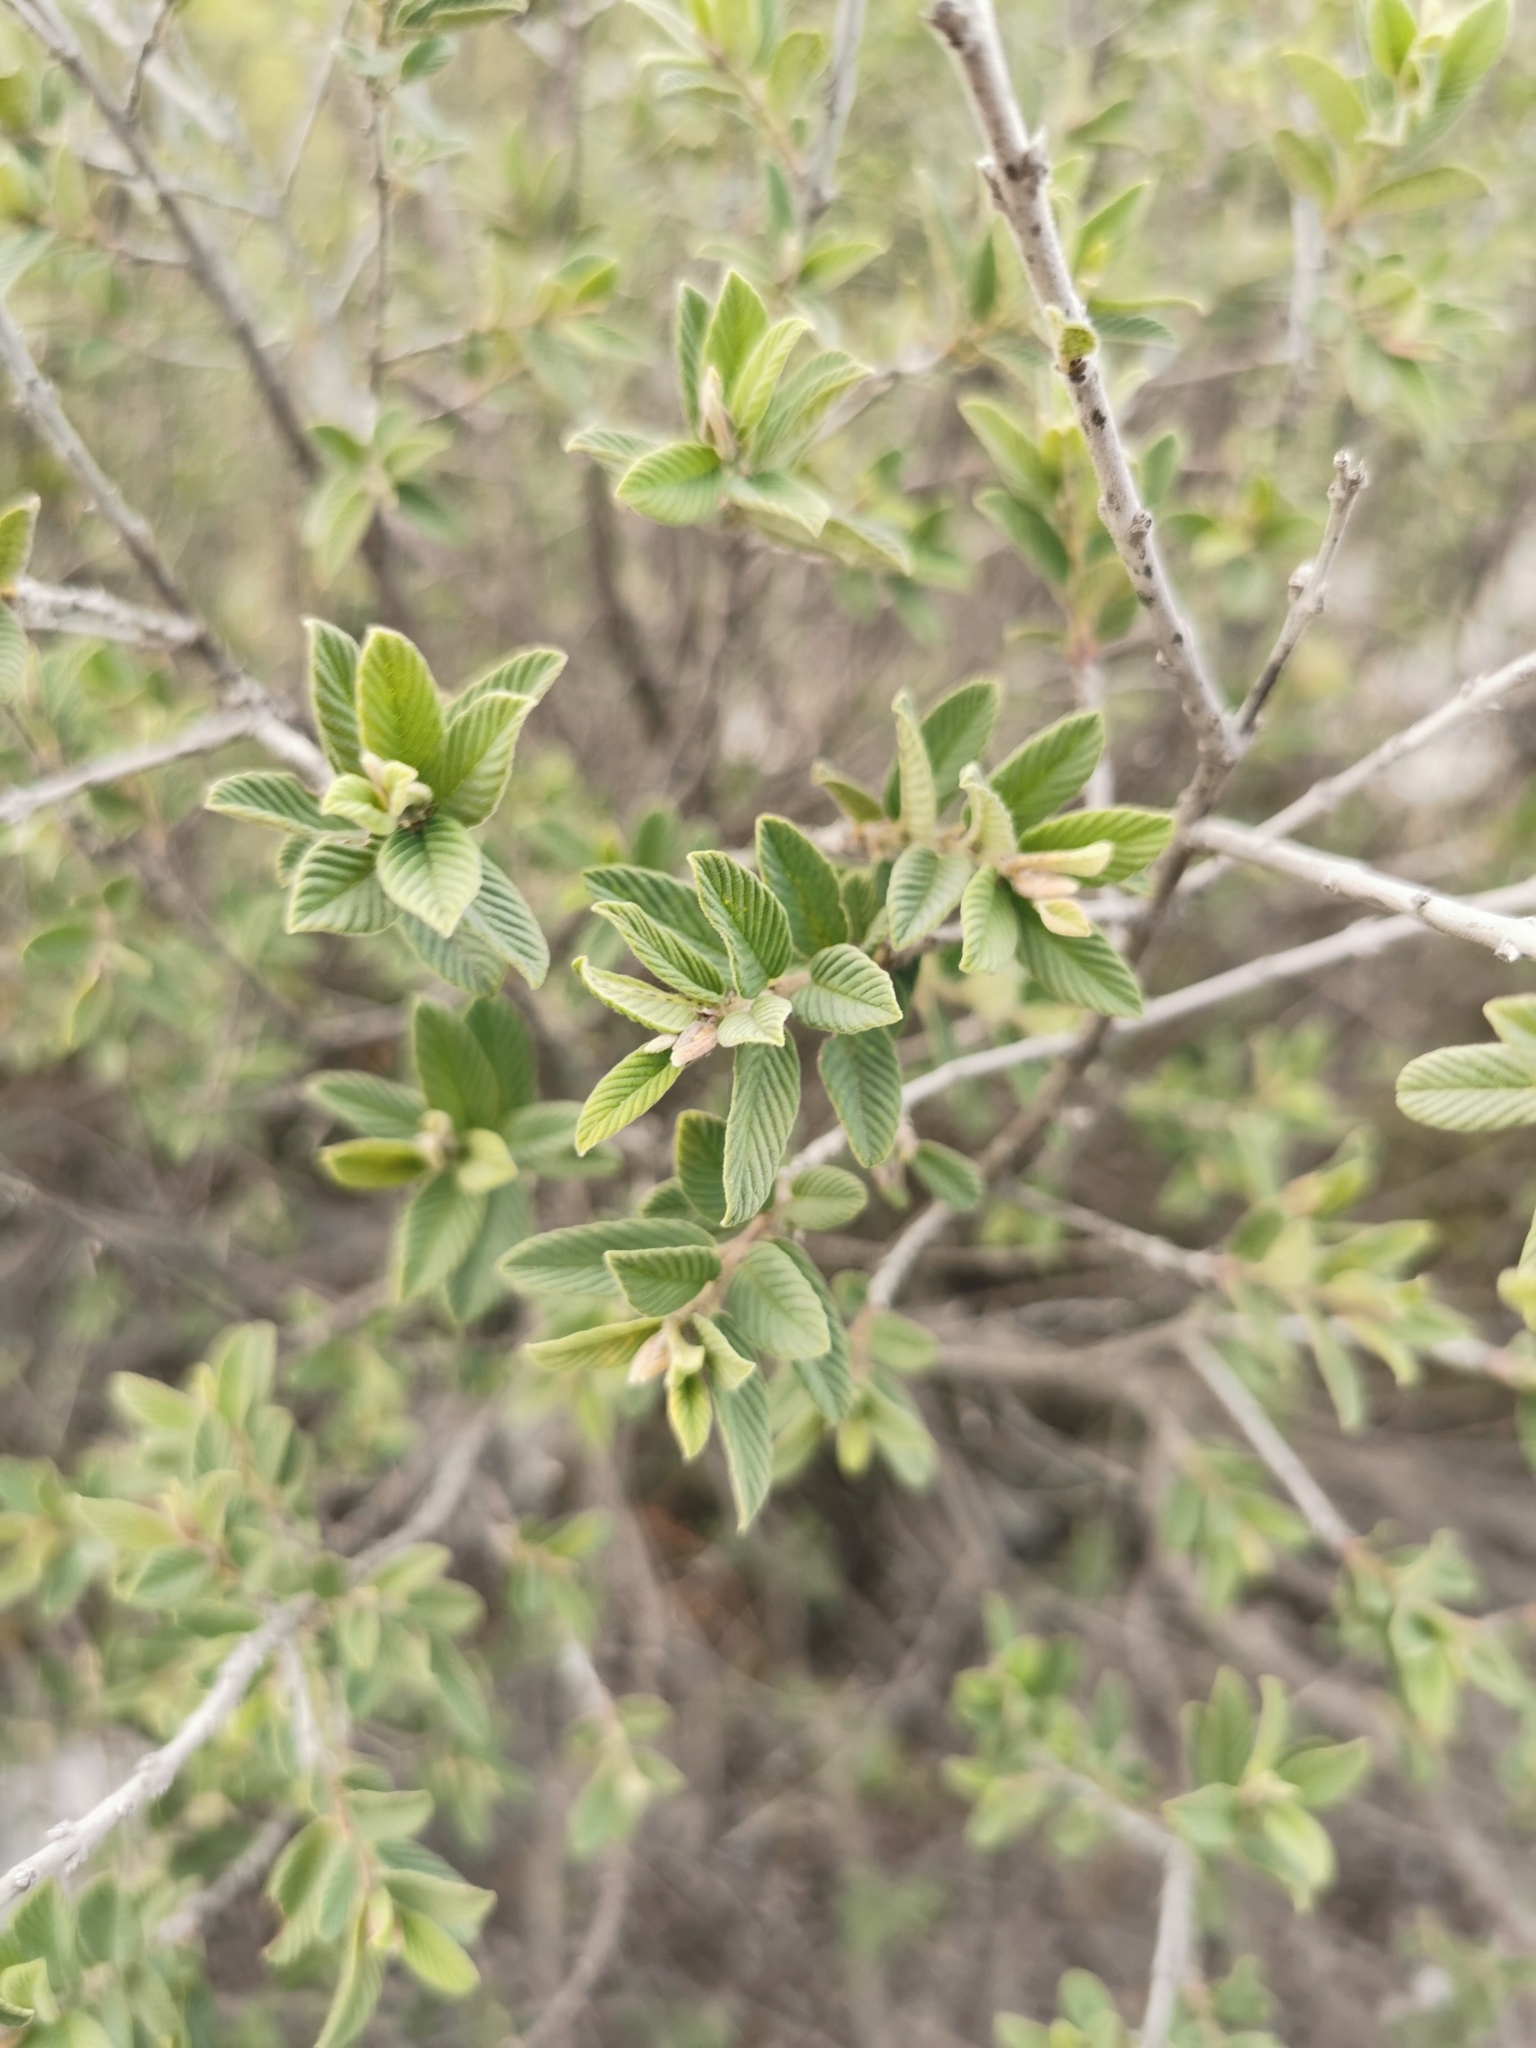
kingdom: Plantae
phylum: Tracheophyta
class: Magnoliopsida
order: Rosales
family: Rhamnaceae
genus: Karwinskia
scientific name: Karwinskia humboldtiana
